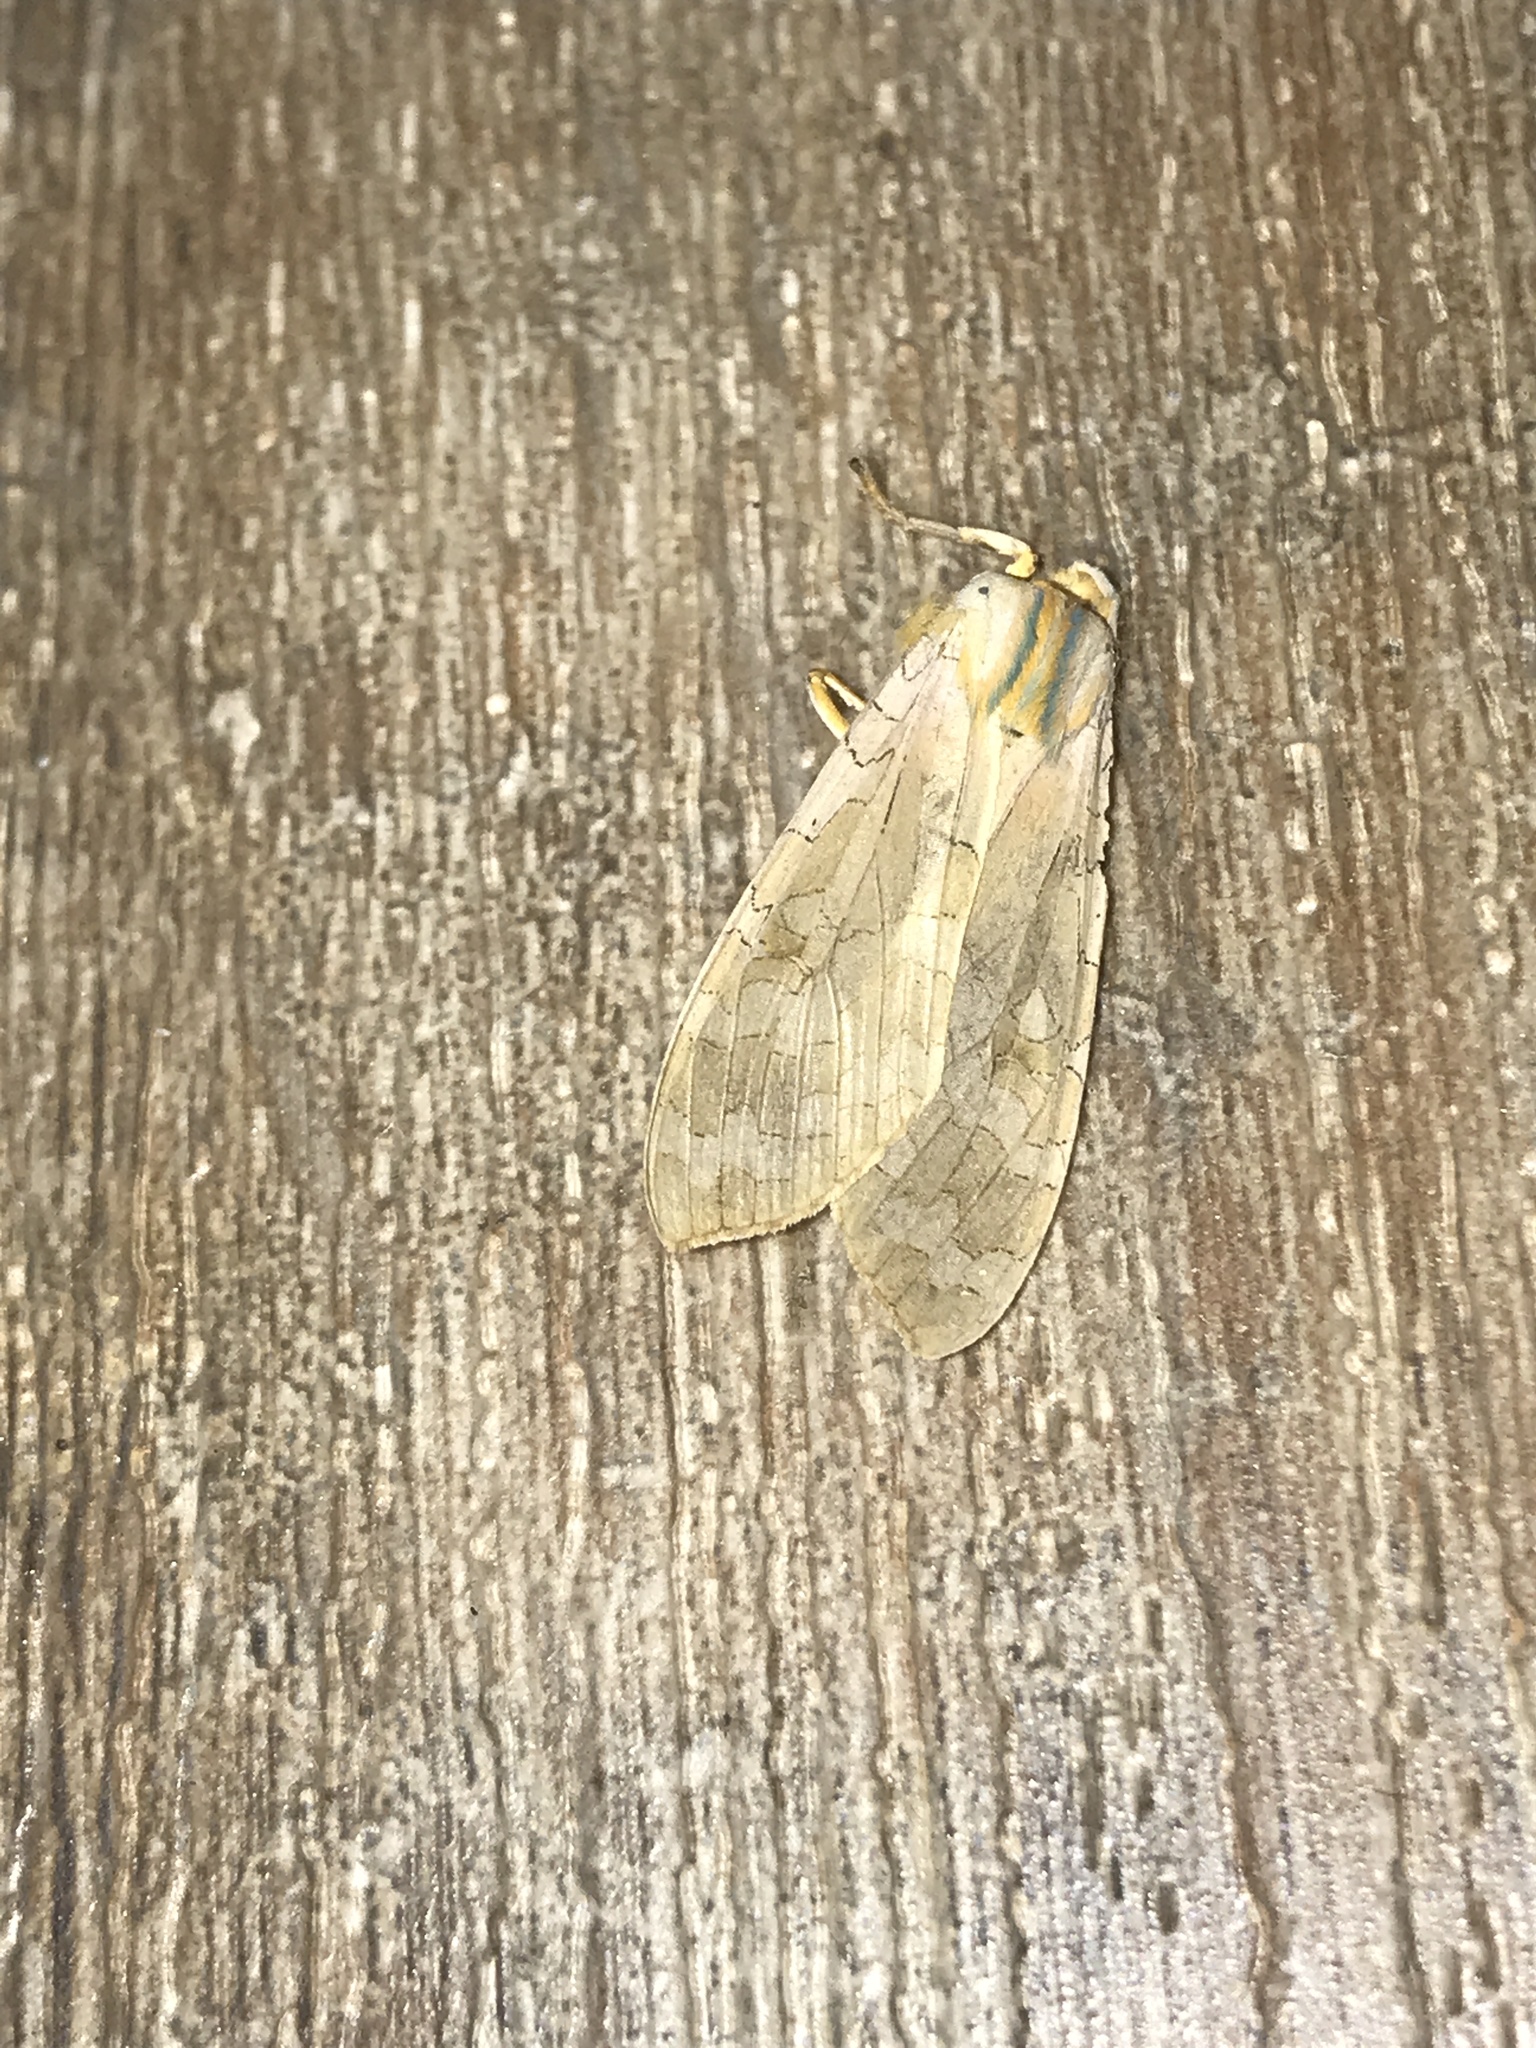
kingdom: Animalia
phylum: Arthropoda
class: Insecta
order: Lepidoptera
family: Erebidae
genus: Halysidota
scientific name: Halysidota
